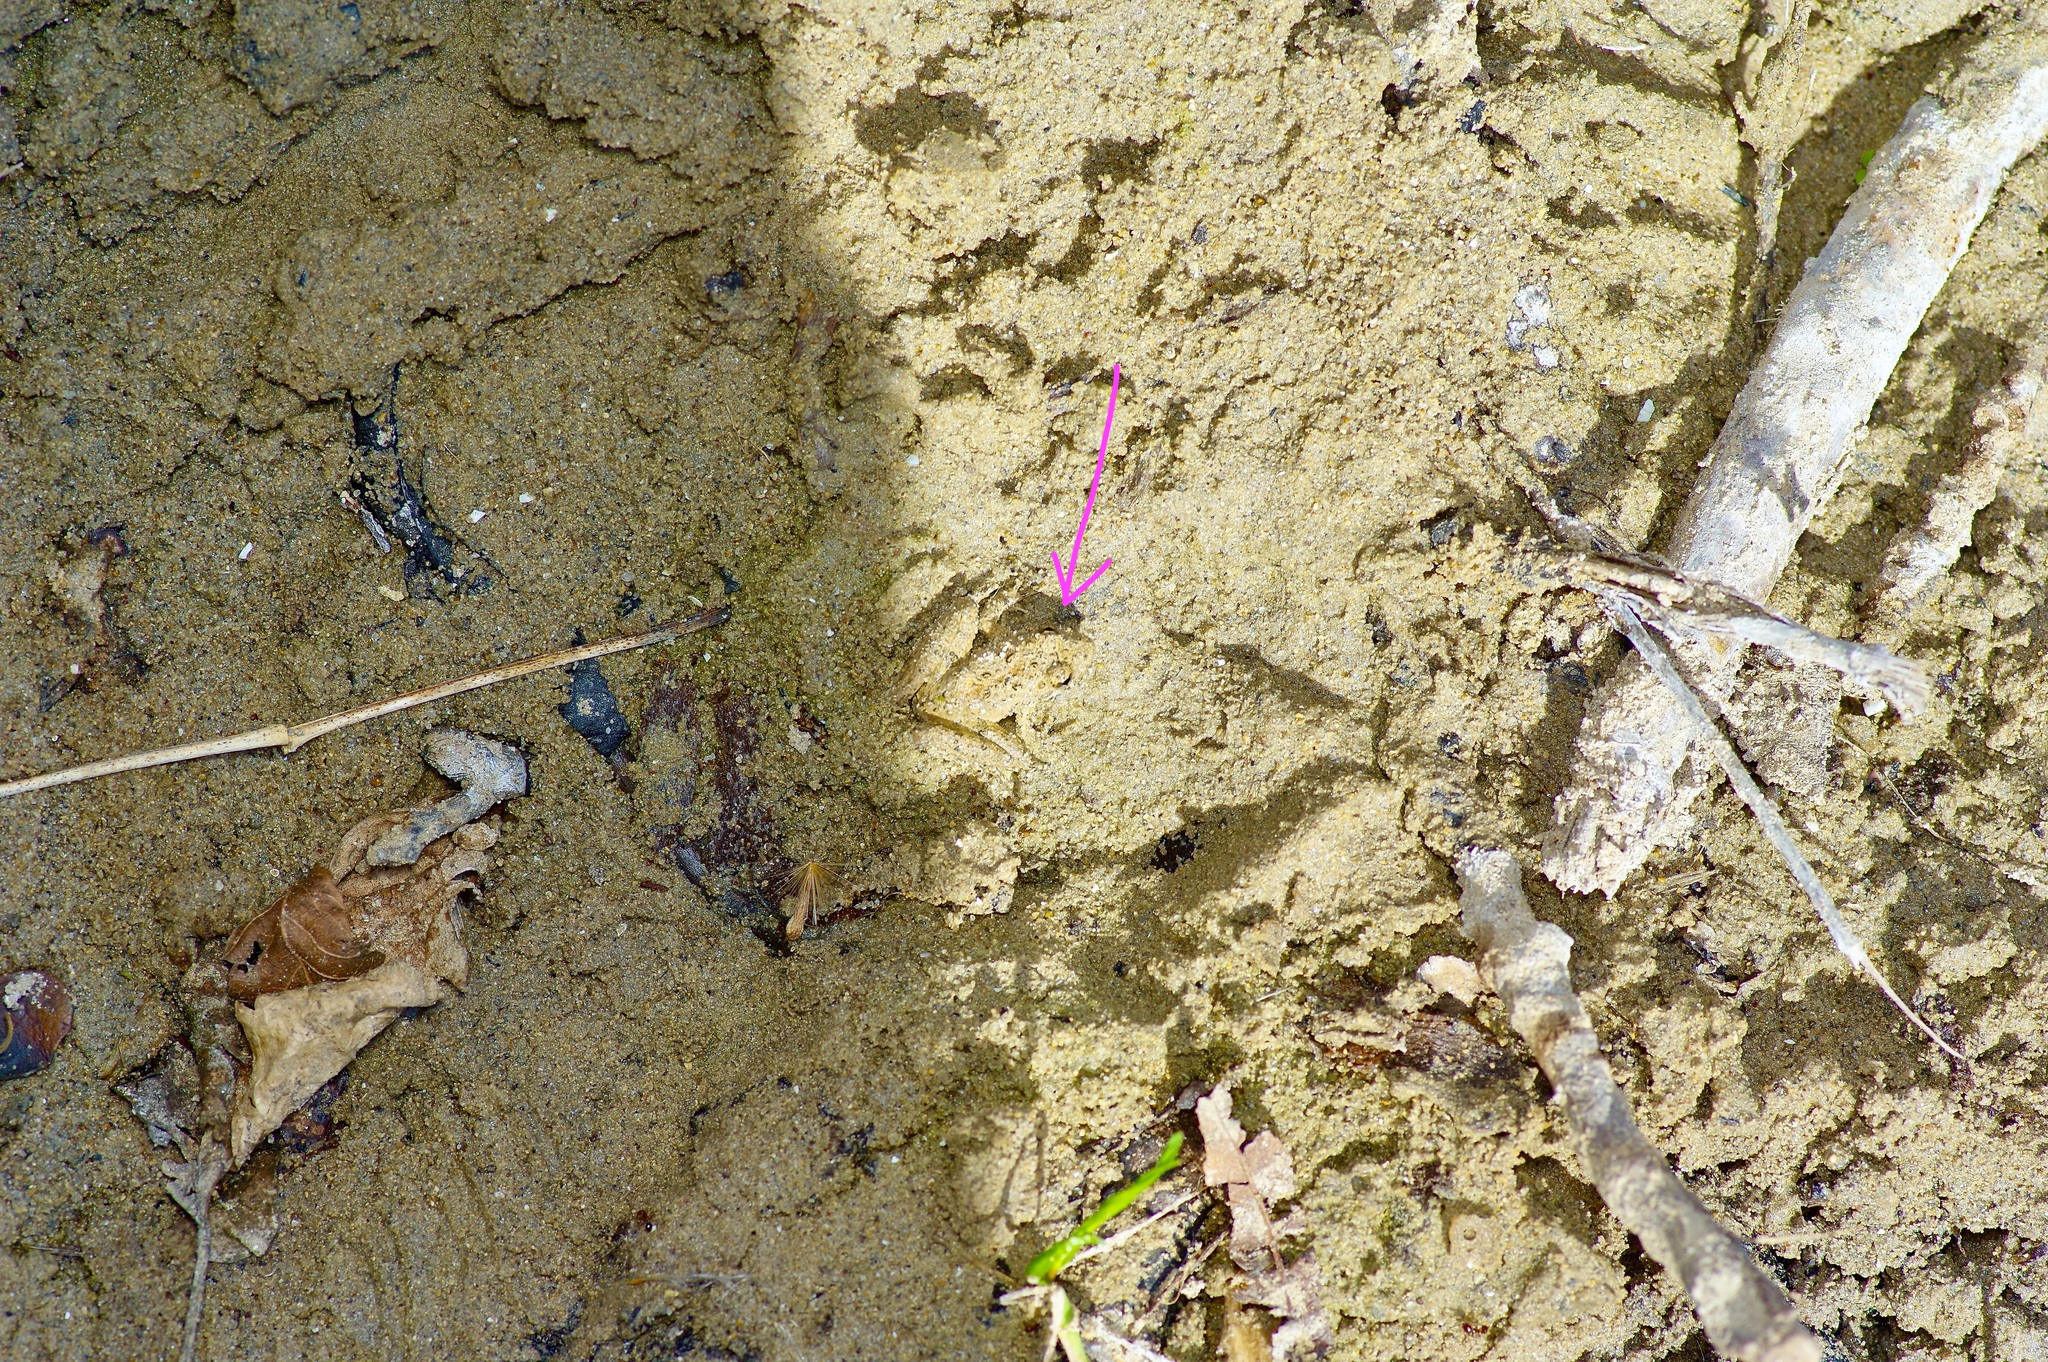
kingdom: Animalia
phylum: Chordata
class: Amphibia
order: Anura
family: Hylidae
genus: Acris
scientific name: Acris blanchardi
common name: Blanchard's cricket frog
